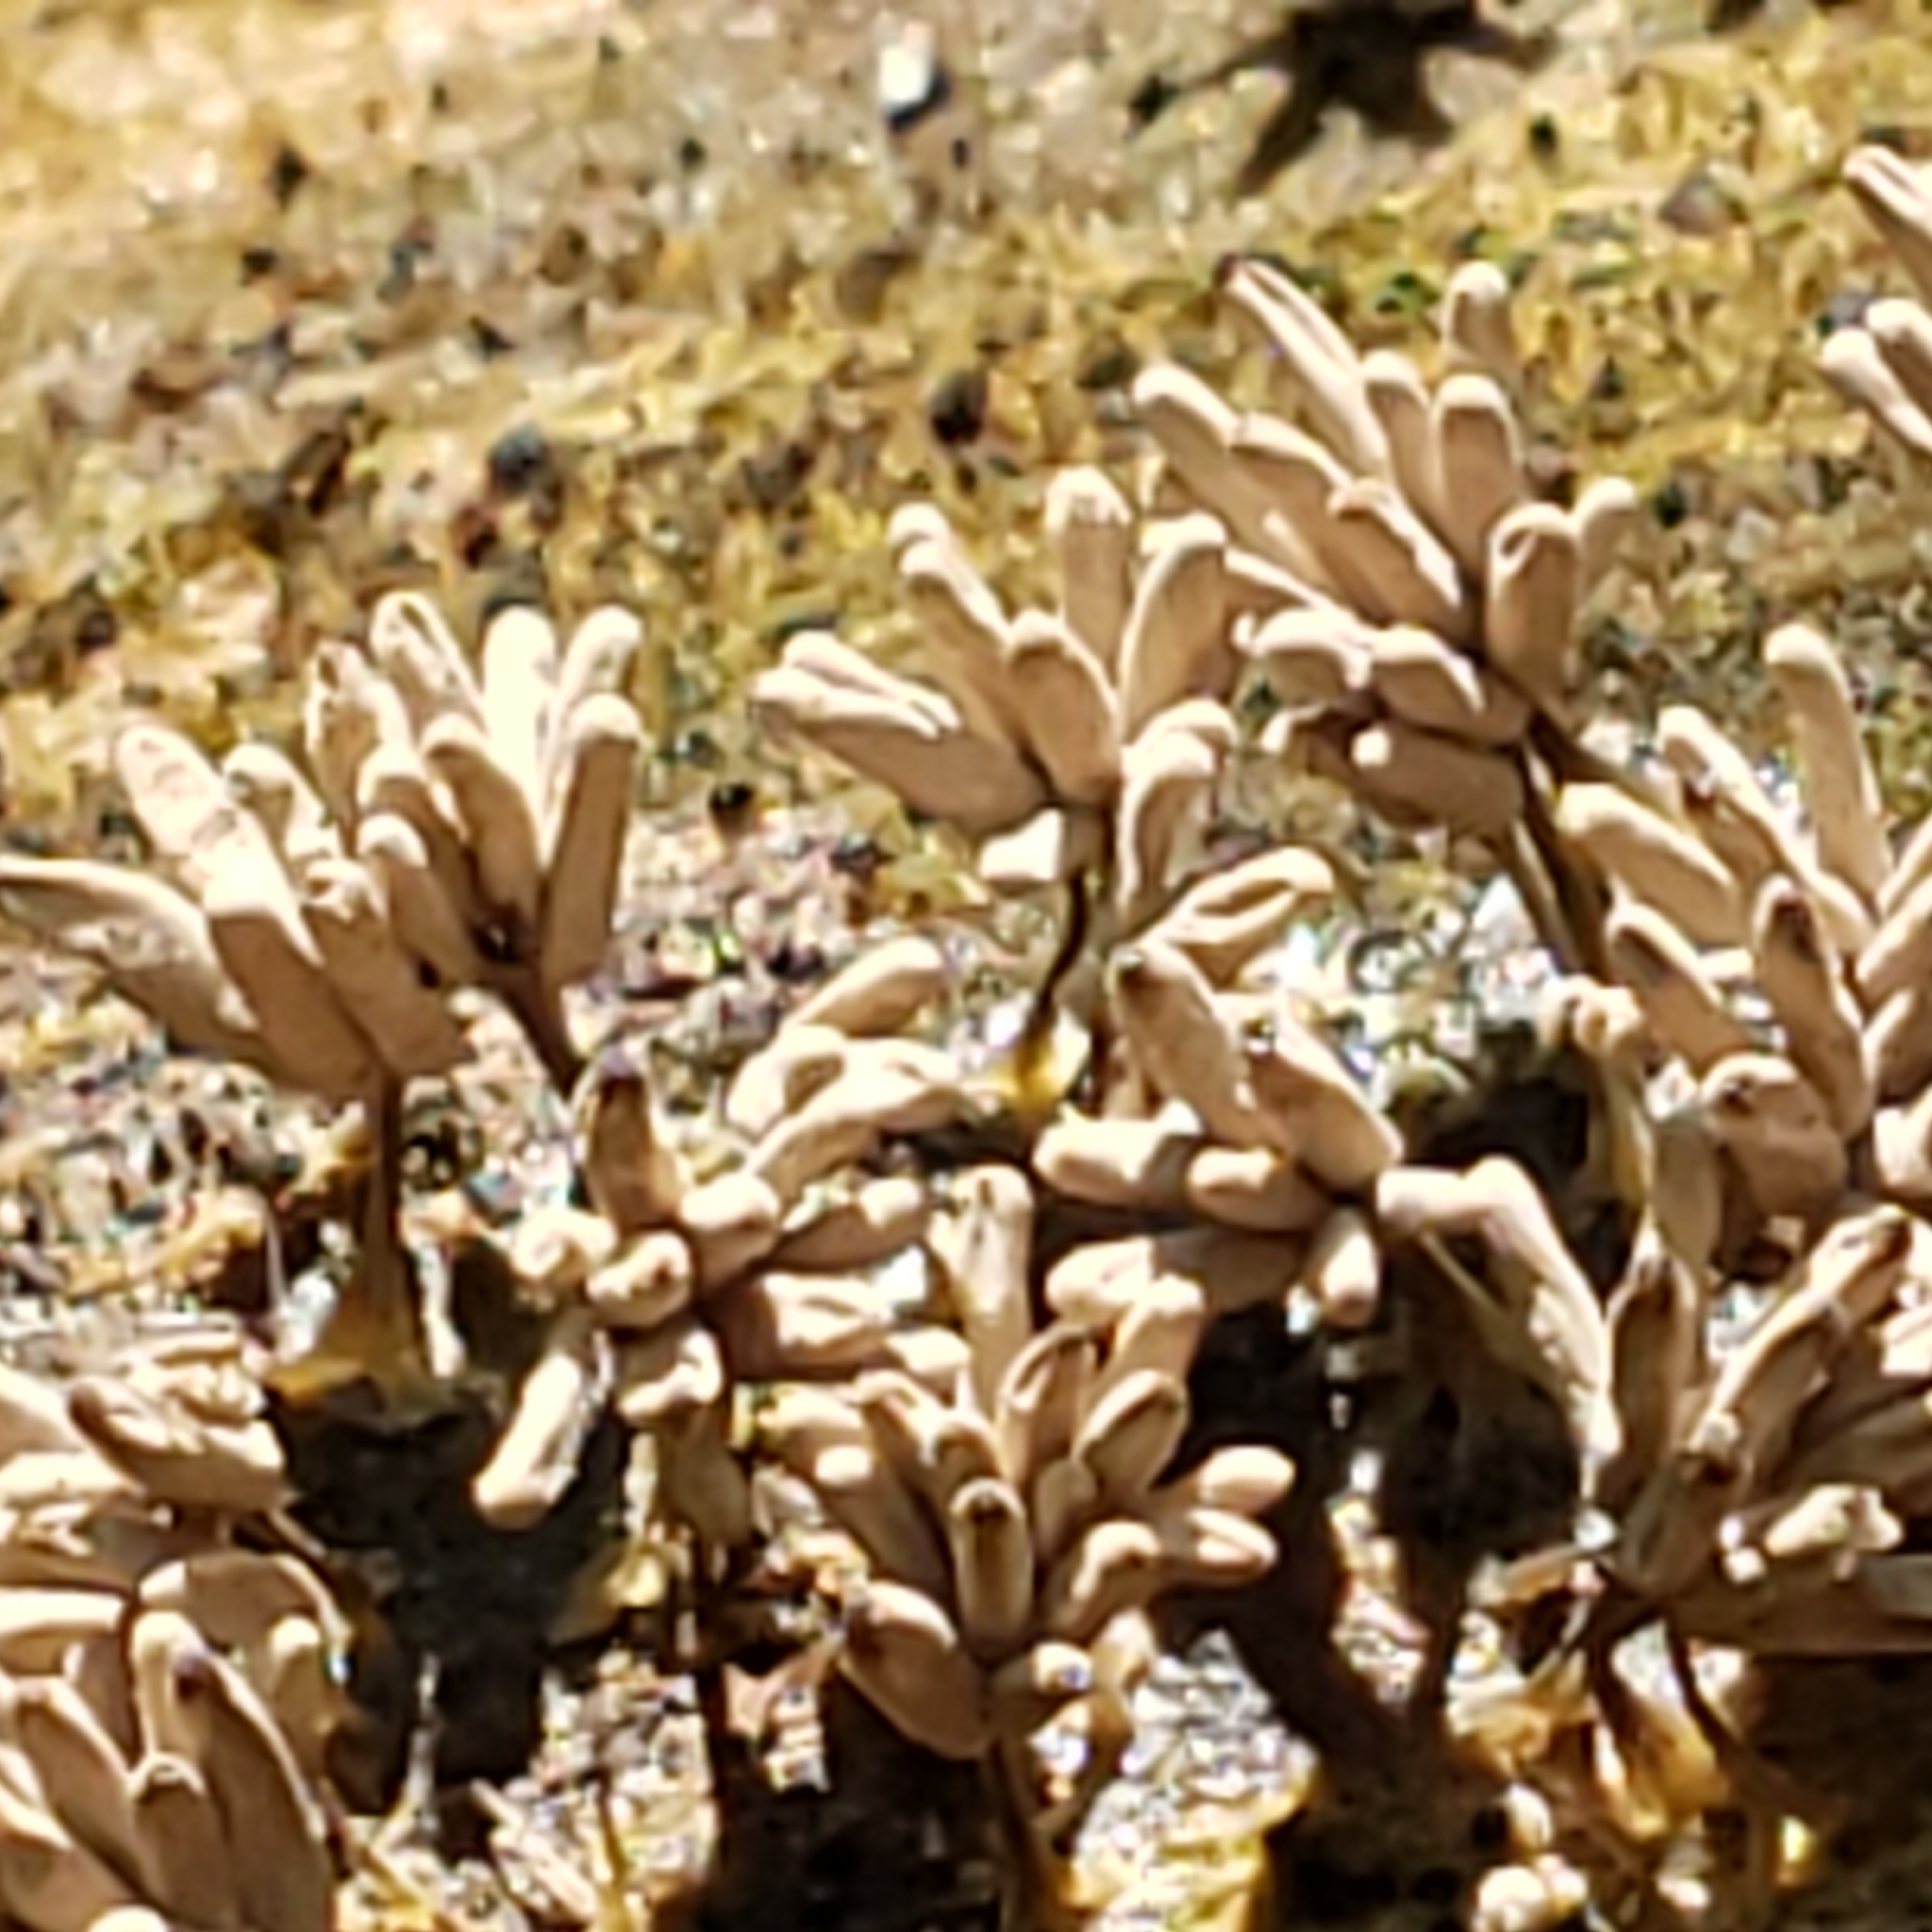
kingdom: Protozoa
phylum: Mycetozoa
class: Myxomycetes
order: Trichiales
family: Arcyriaceae
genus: Arcyria
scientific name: Arcyria cinerea
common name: White carnival candy slime mold
